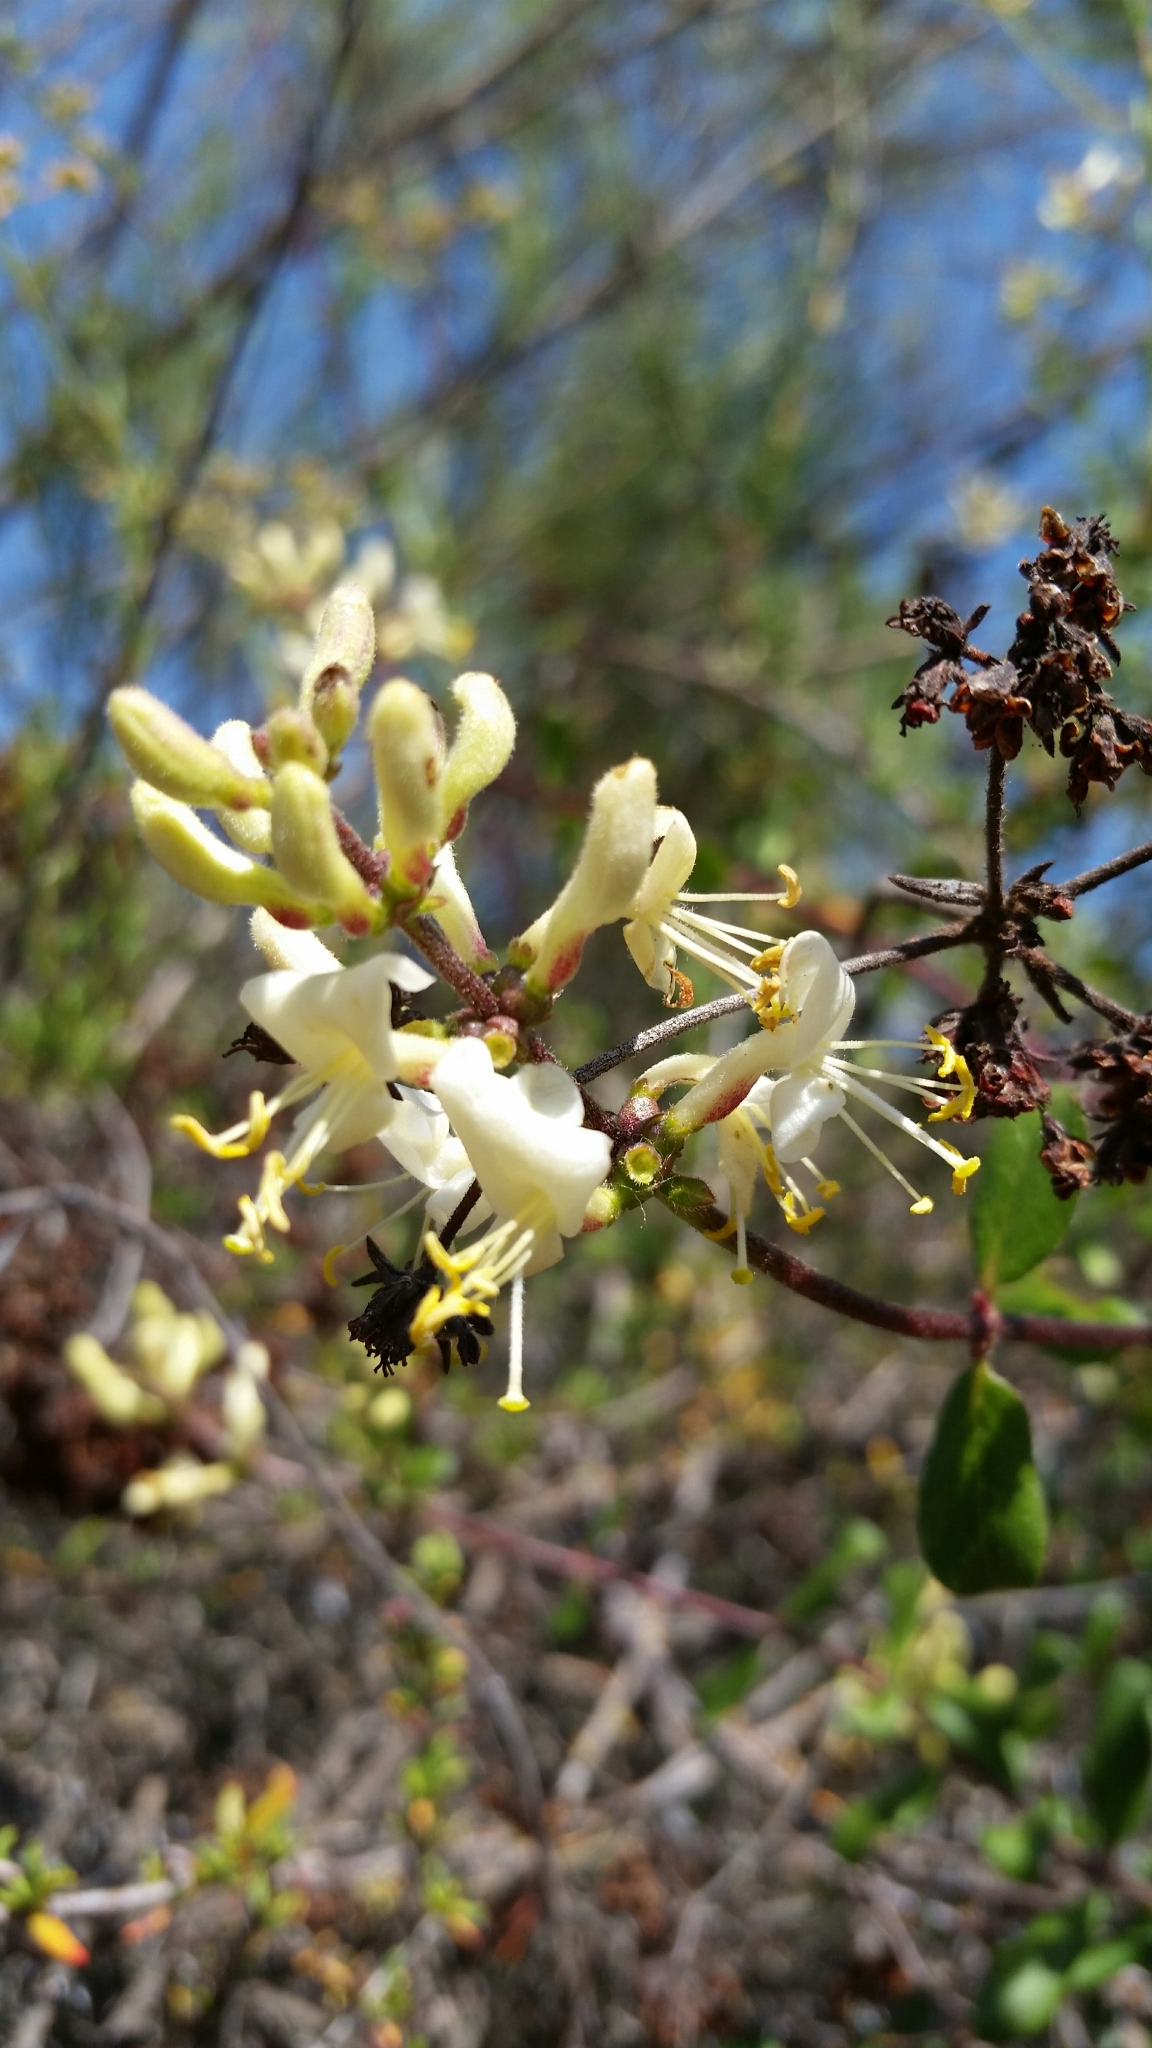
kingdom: Plantae
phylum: Tracheophyta
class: Magnoliopsida
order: Dipsacales
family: Caprifoliaceae
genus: Lonicera
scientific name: Lonicera subspicata
